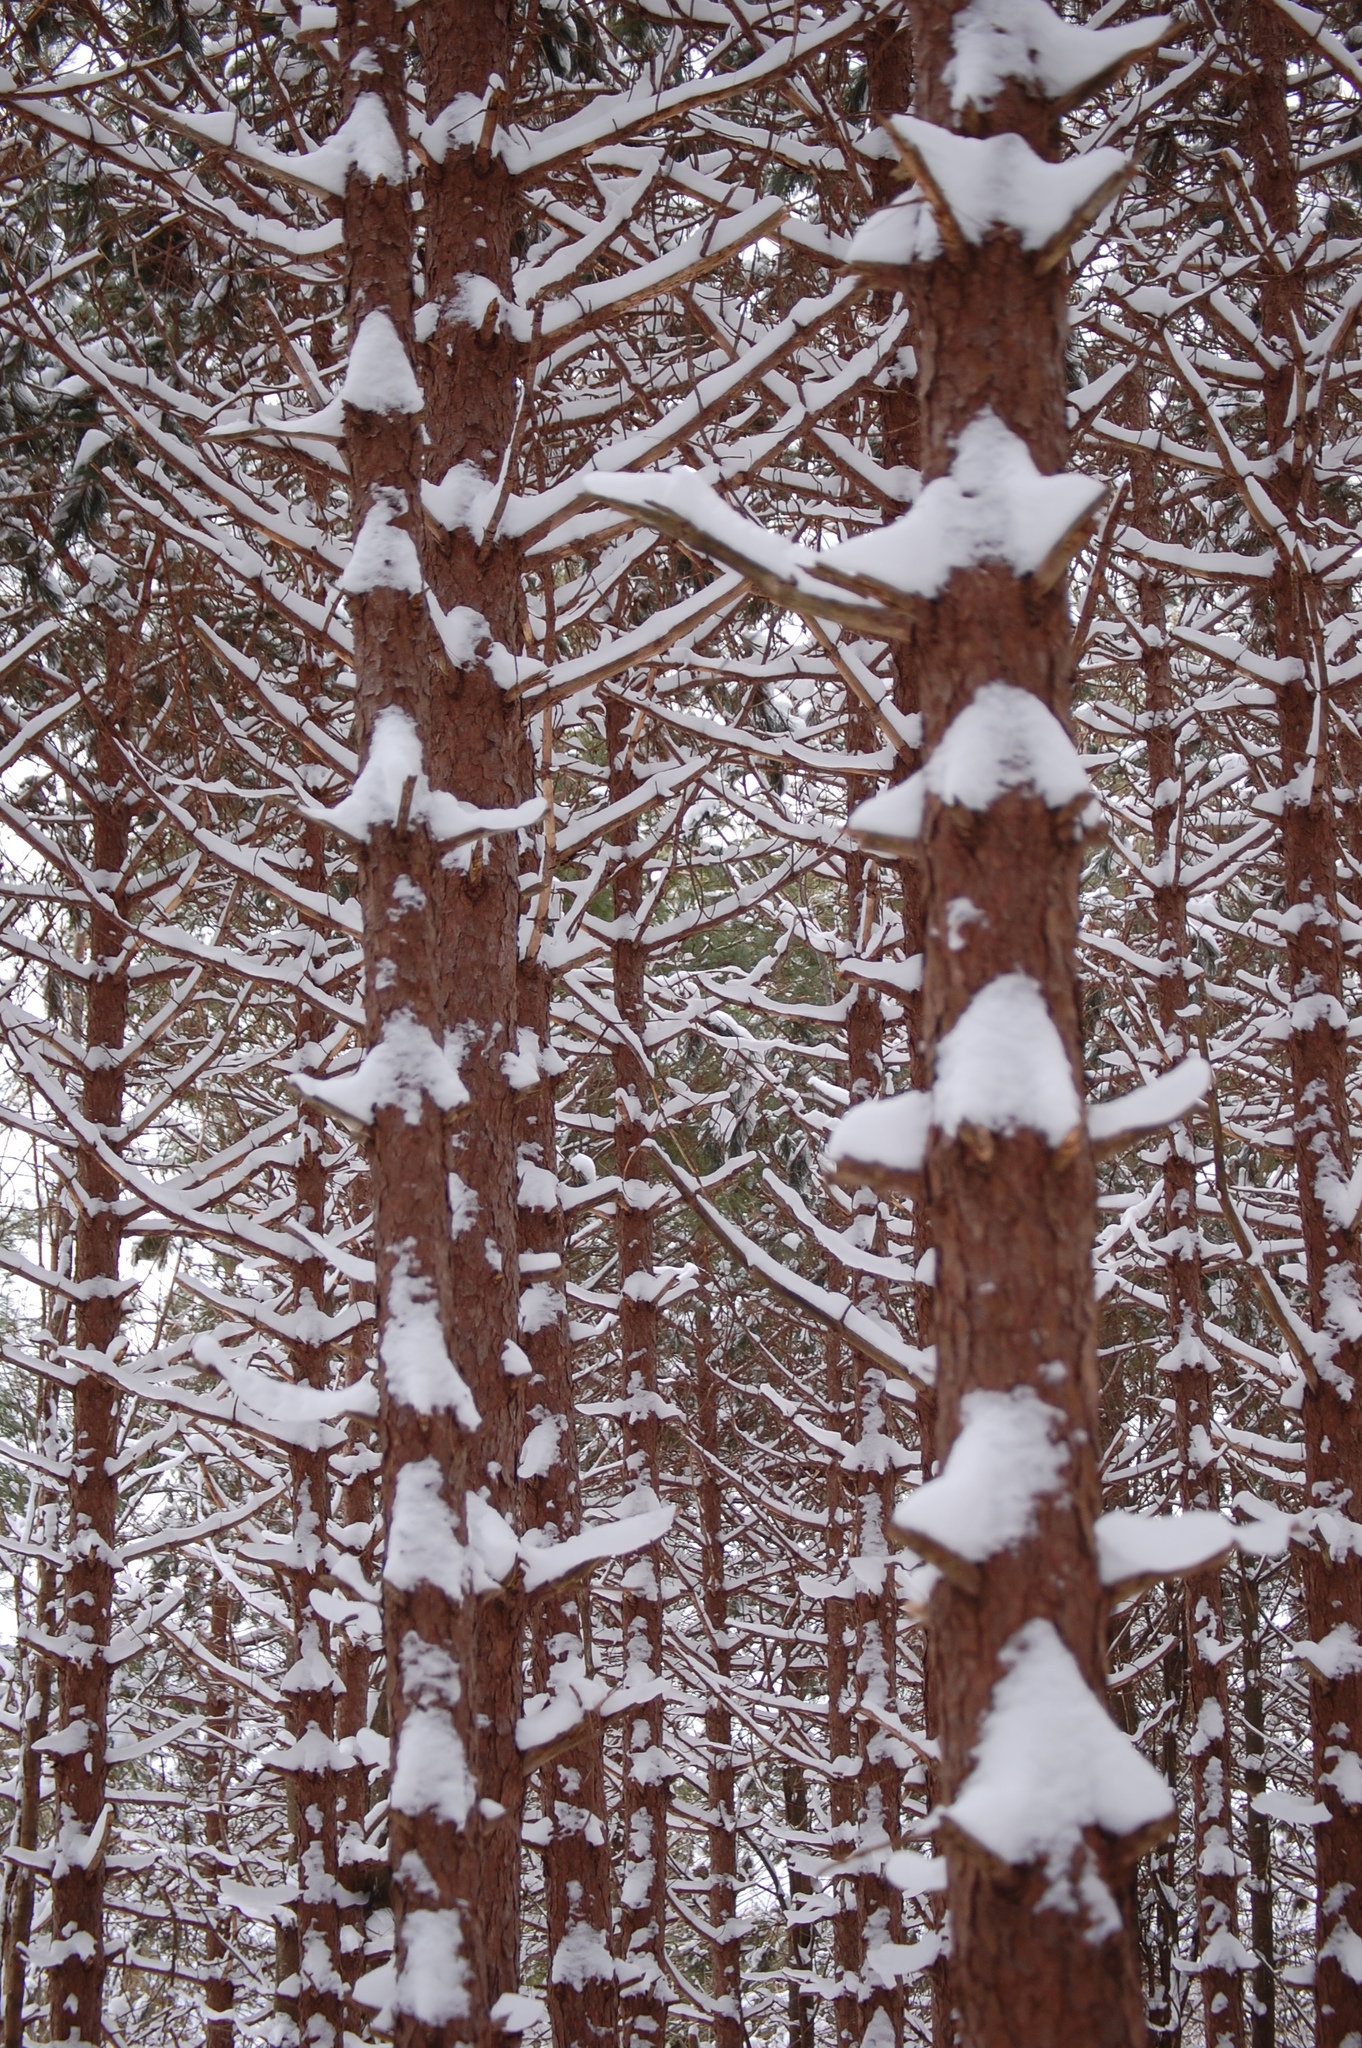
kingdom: Plantae
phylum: Tracheophyta
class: Pinopsida
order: Pinales
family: Pinaceae
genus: Pinus
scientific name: Pinus resinosa
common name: Norway pine
